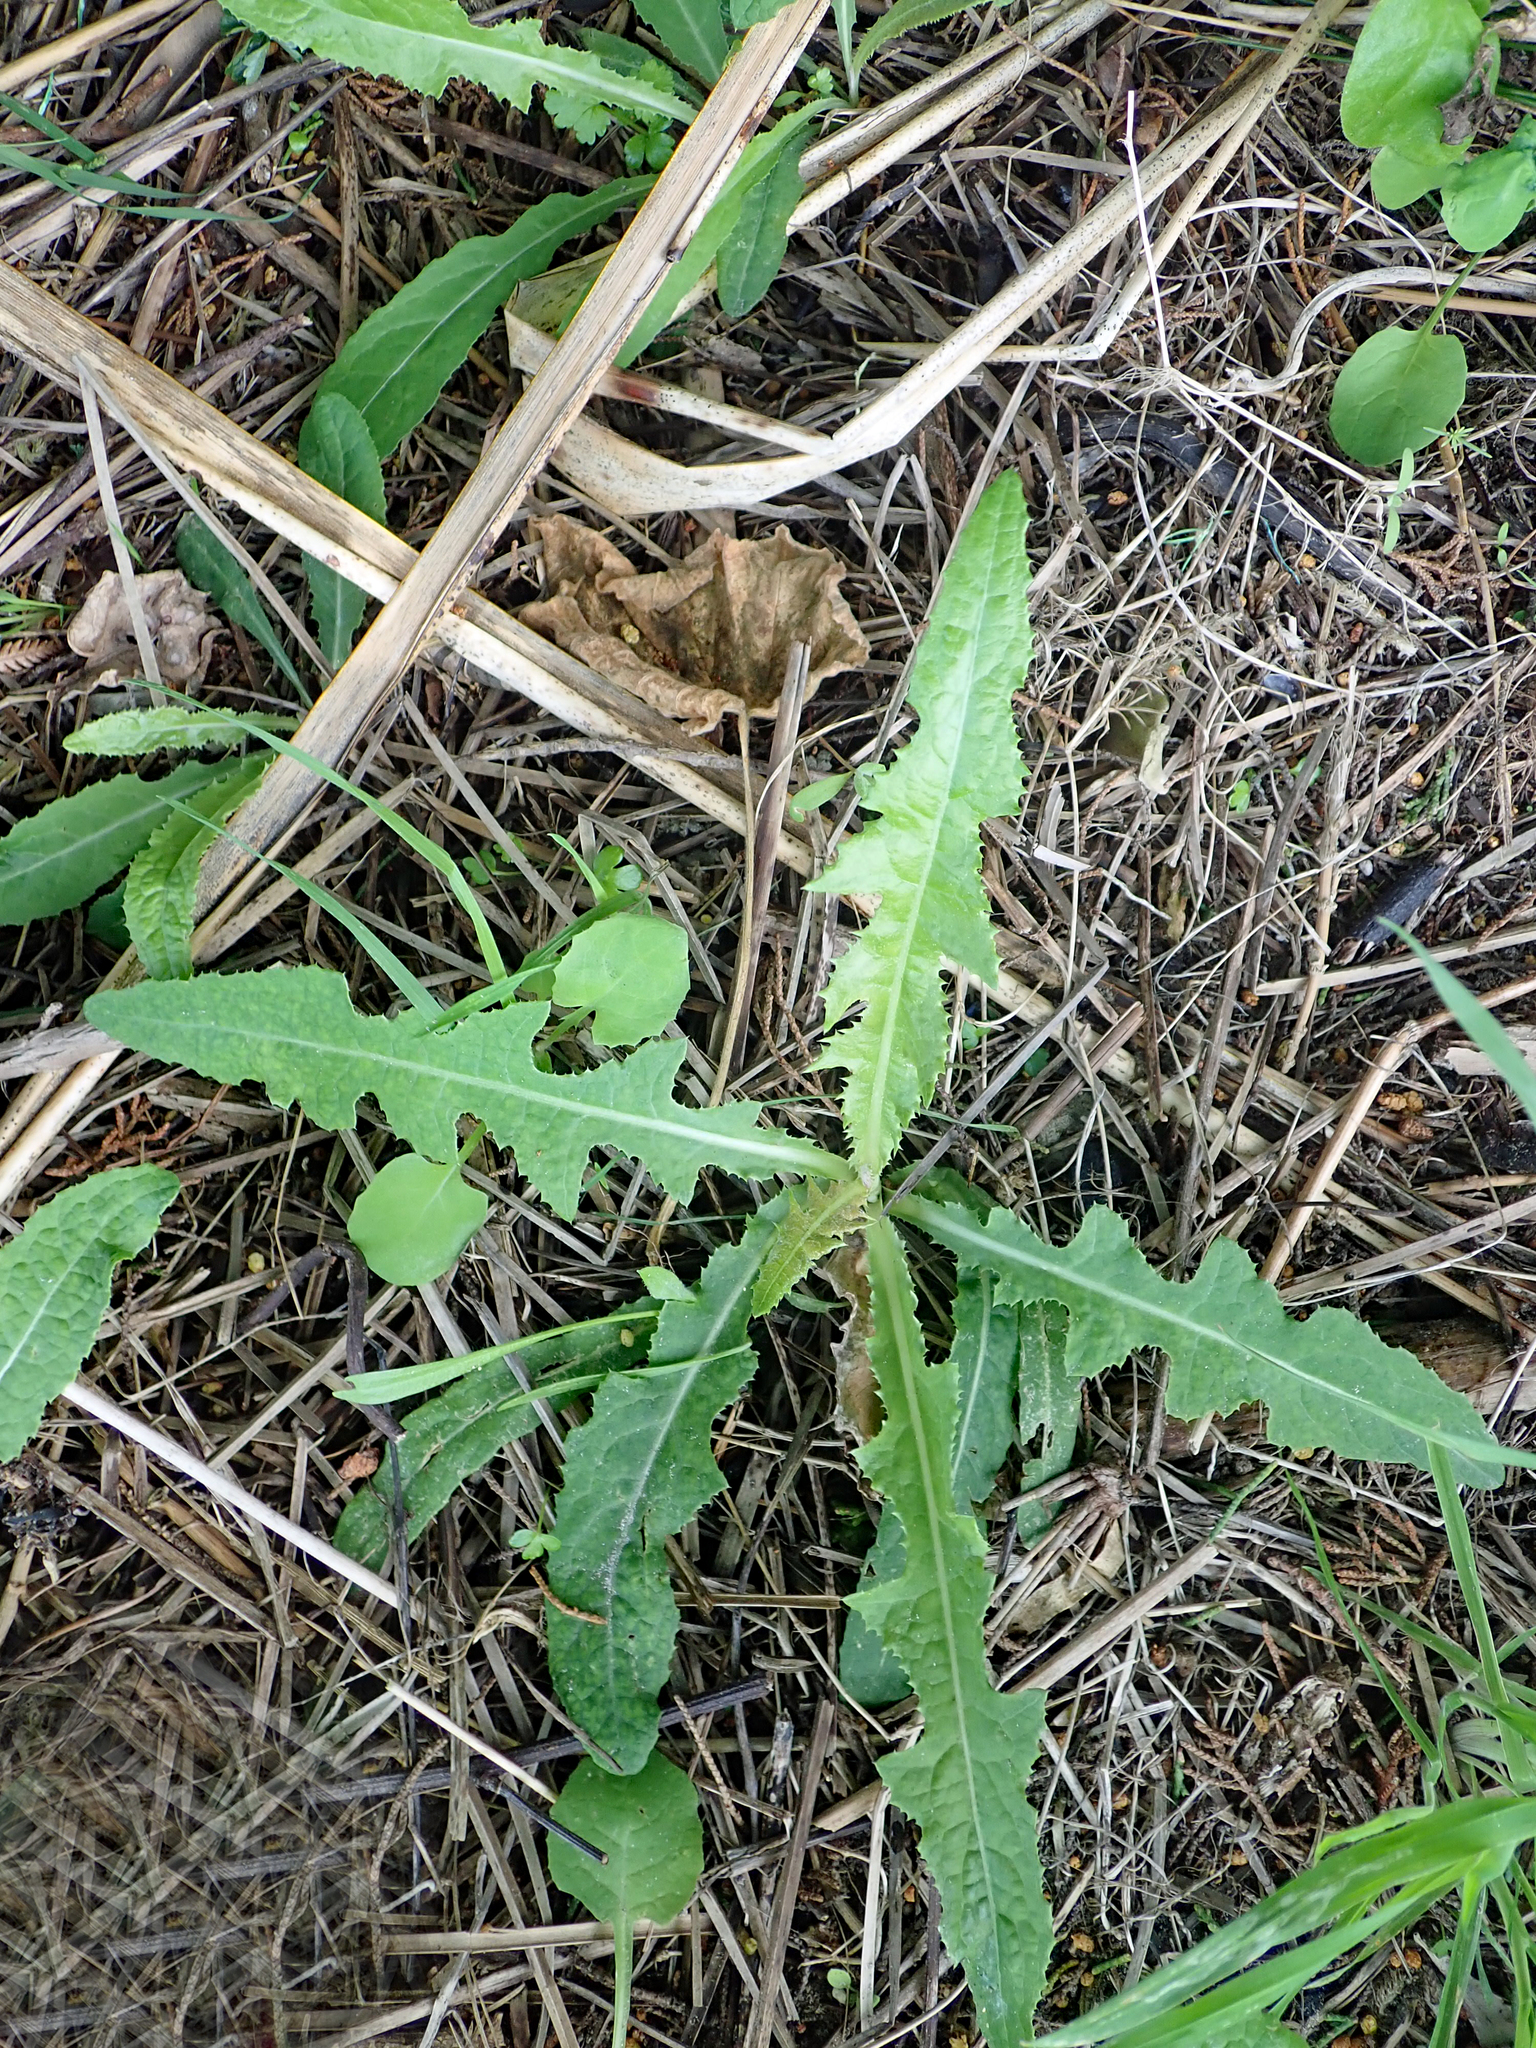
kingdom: Plantae
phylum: Tracheophyta
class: Magnoliopsida
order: Asterales
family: Asteraceae
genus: Sonchus
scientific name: Sonchus arvensis
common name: Perennial sow-thistle
